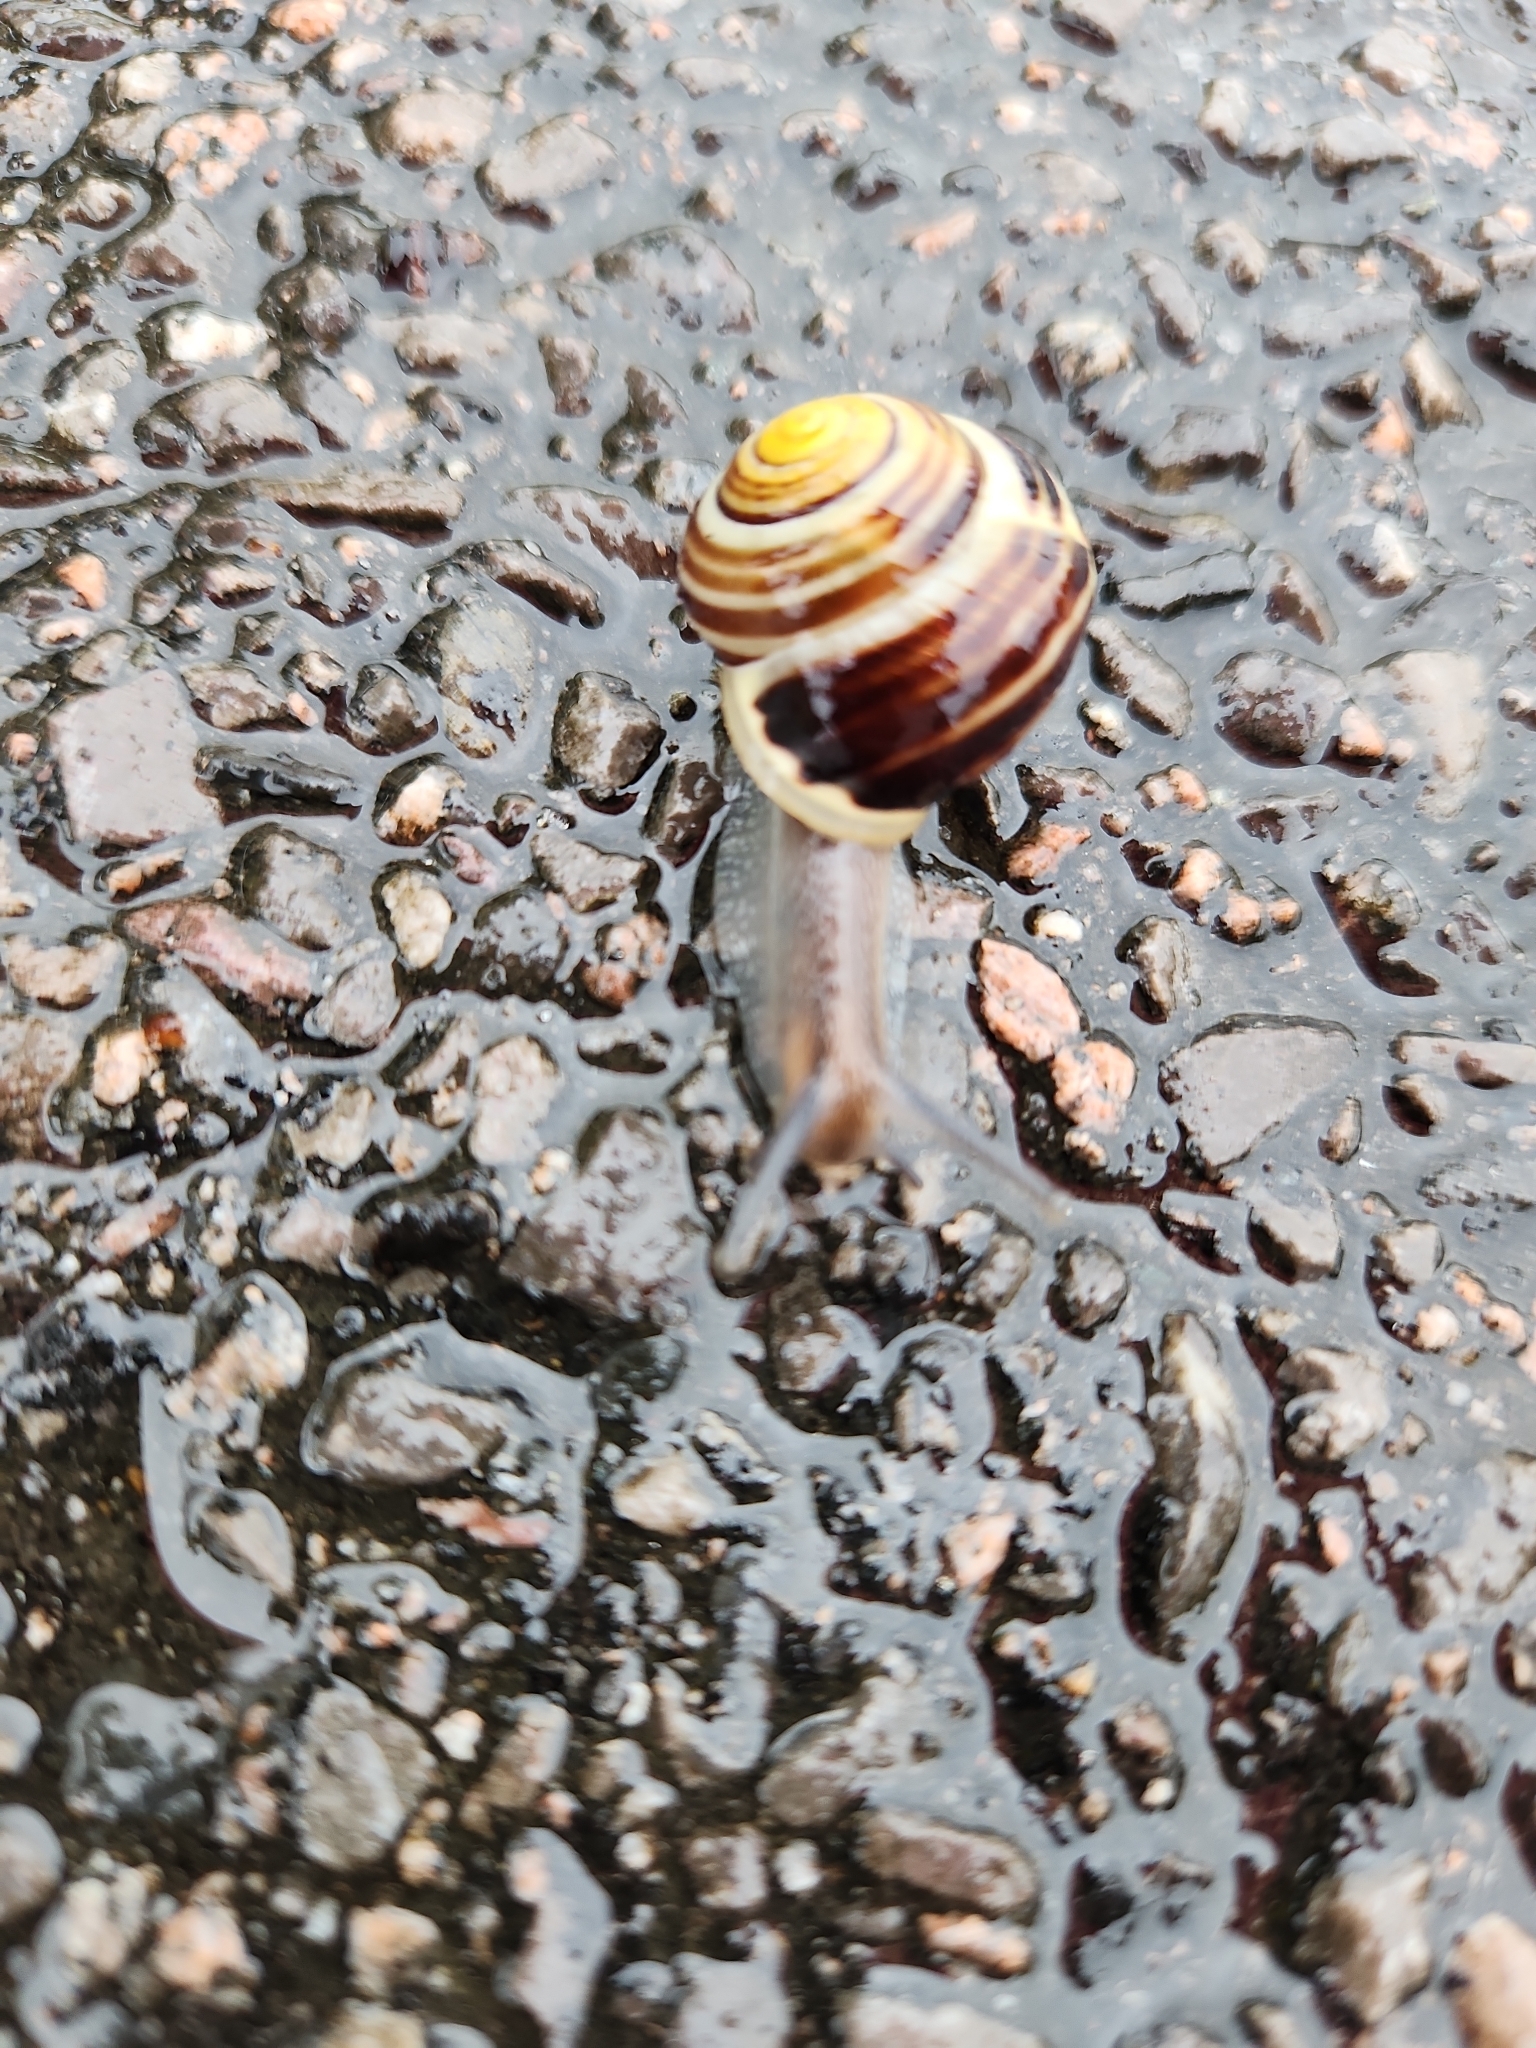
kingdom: Animalia
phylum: Mollusca
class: Gastropoda
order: Stylommatophora
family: Helicidae
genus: Cepaea
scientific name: Cepaea hortensis
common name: White-lip gardensnail
